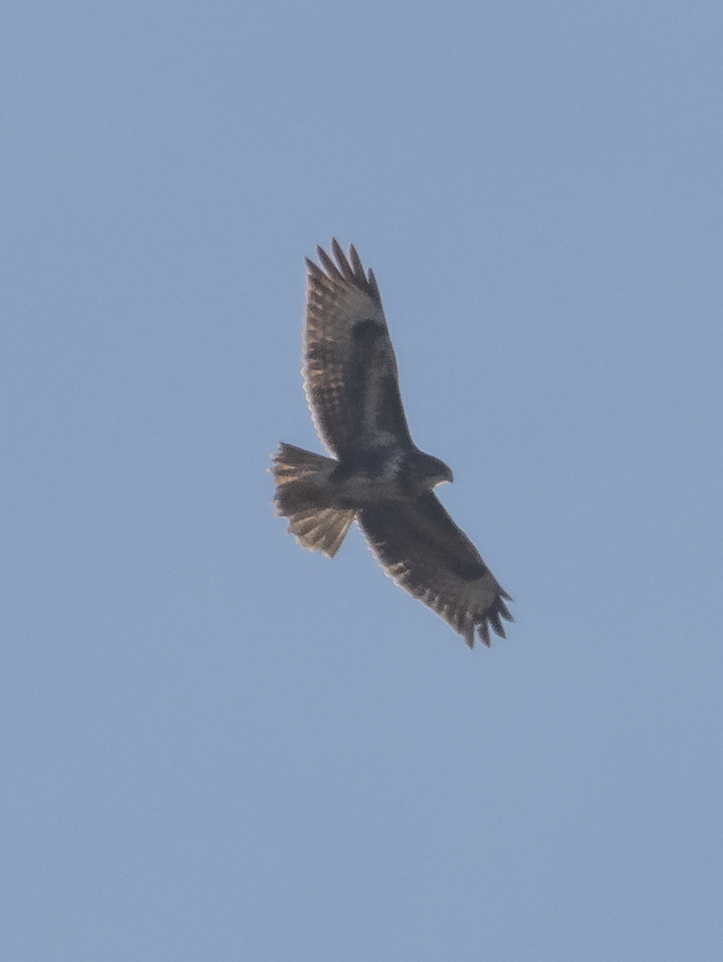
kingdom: Animalia
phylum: Chordata
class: Aves
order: Accipitriformes
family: Accipitridae
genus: Buteo
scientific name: Buteo buteo
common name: Common buzzard
